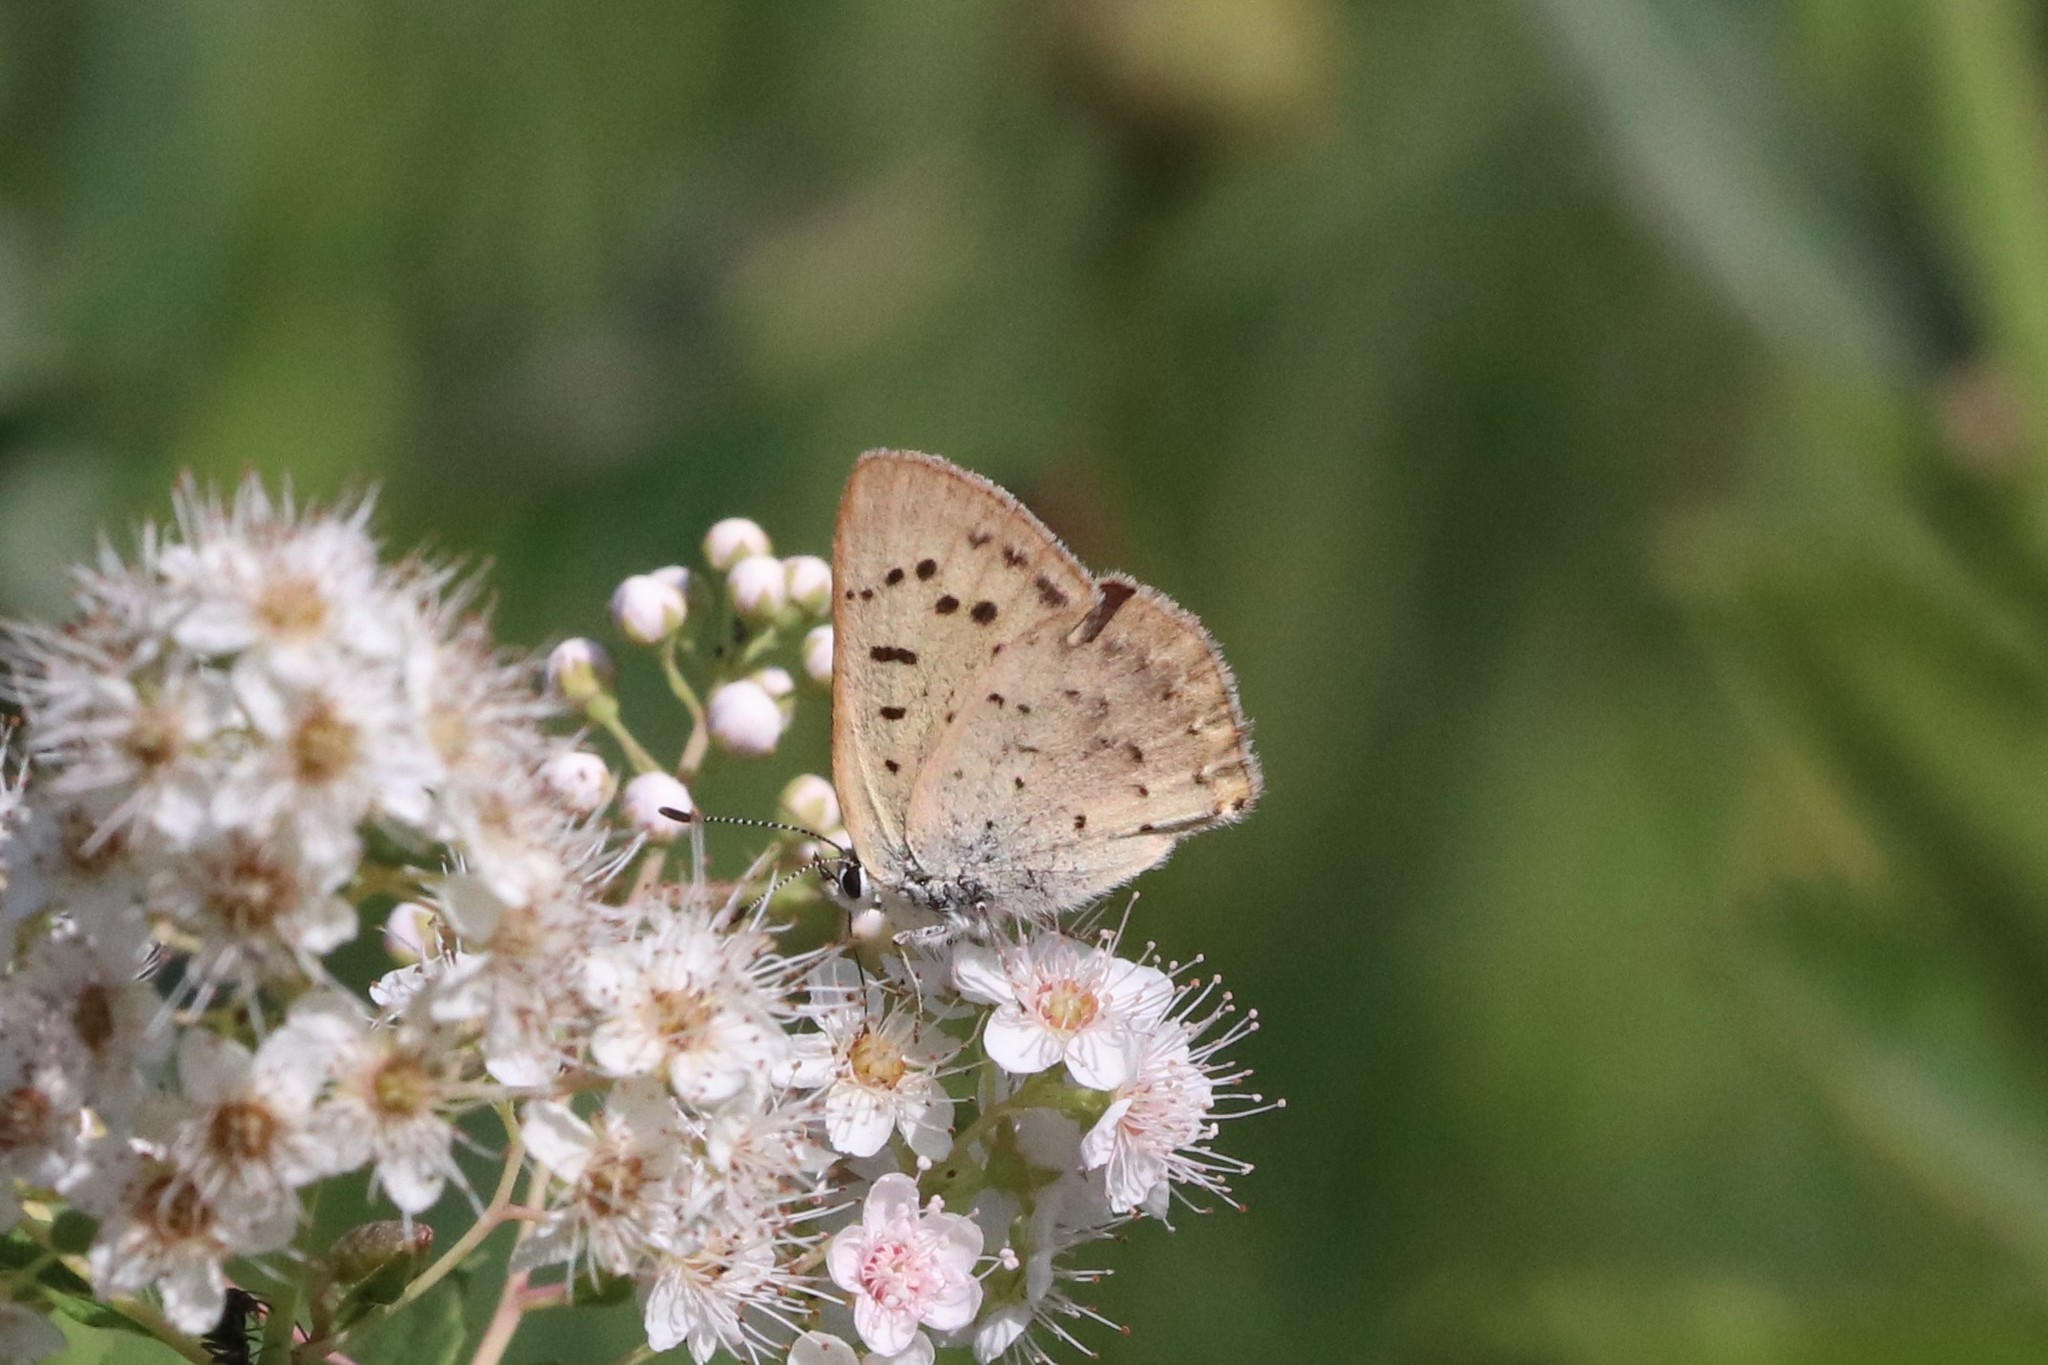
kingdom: Animalia
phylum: Arthropoda
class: Insecta
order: Lepidoptera
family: Lycaenidae
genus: Tharsalea
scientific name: Tharsalea dospassosi
